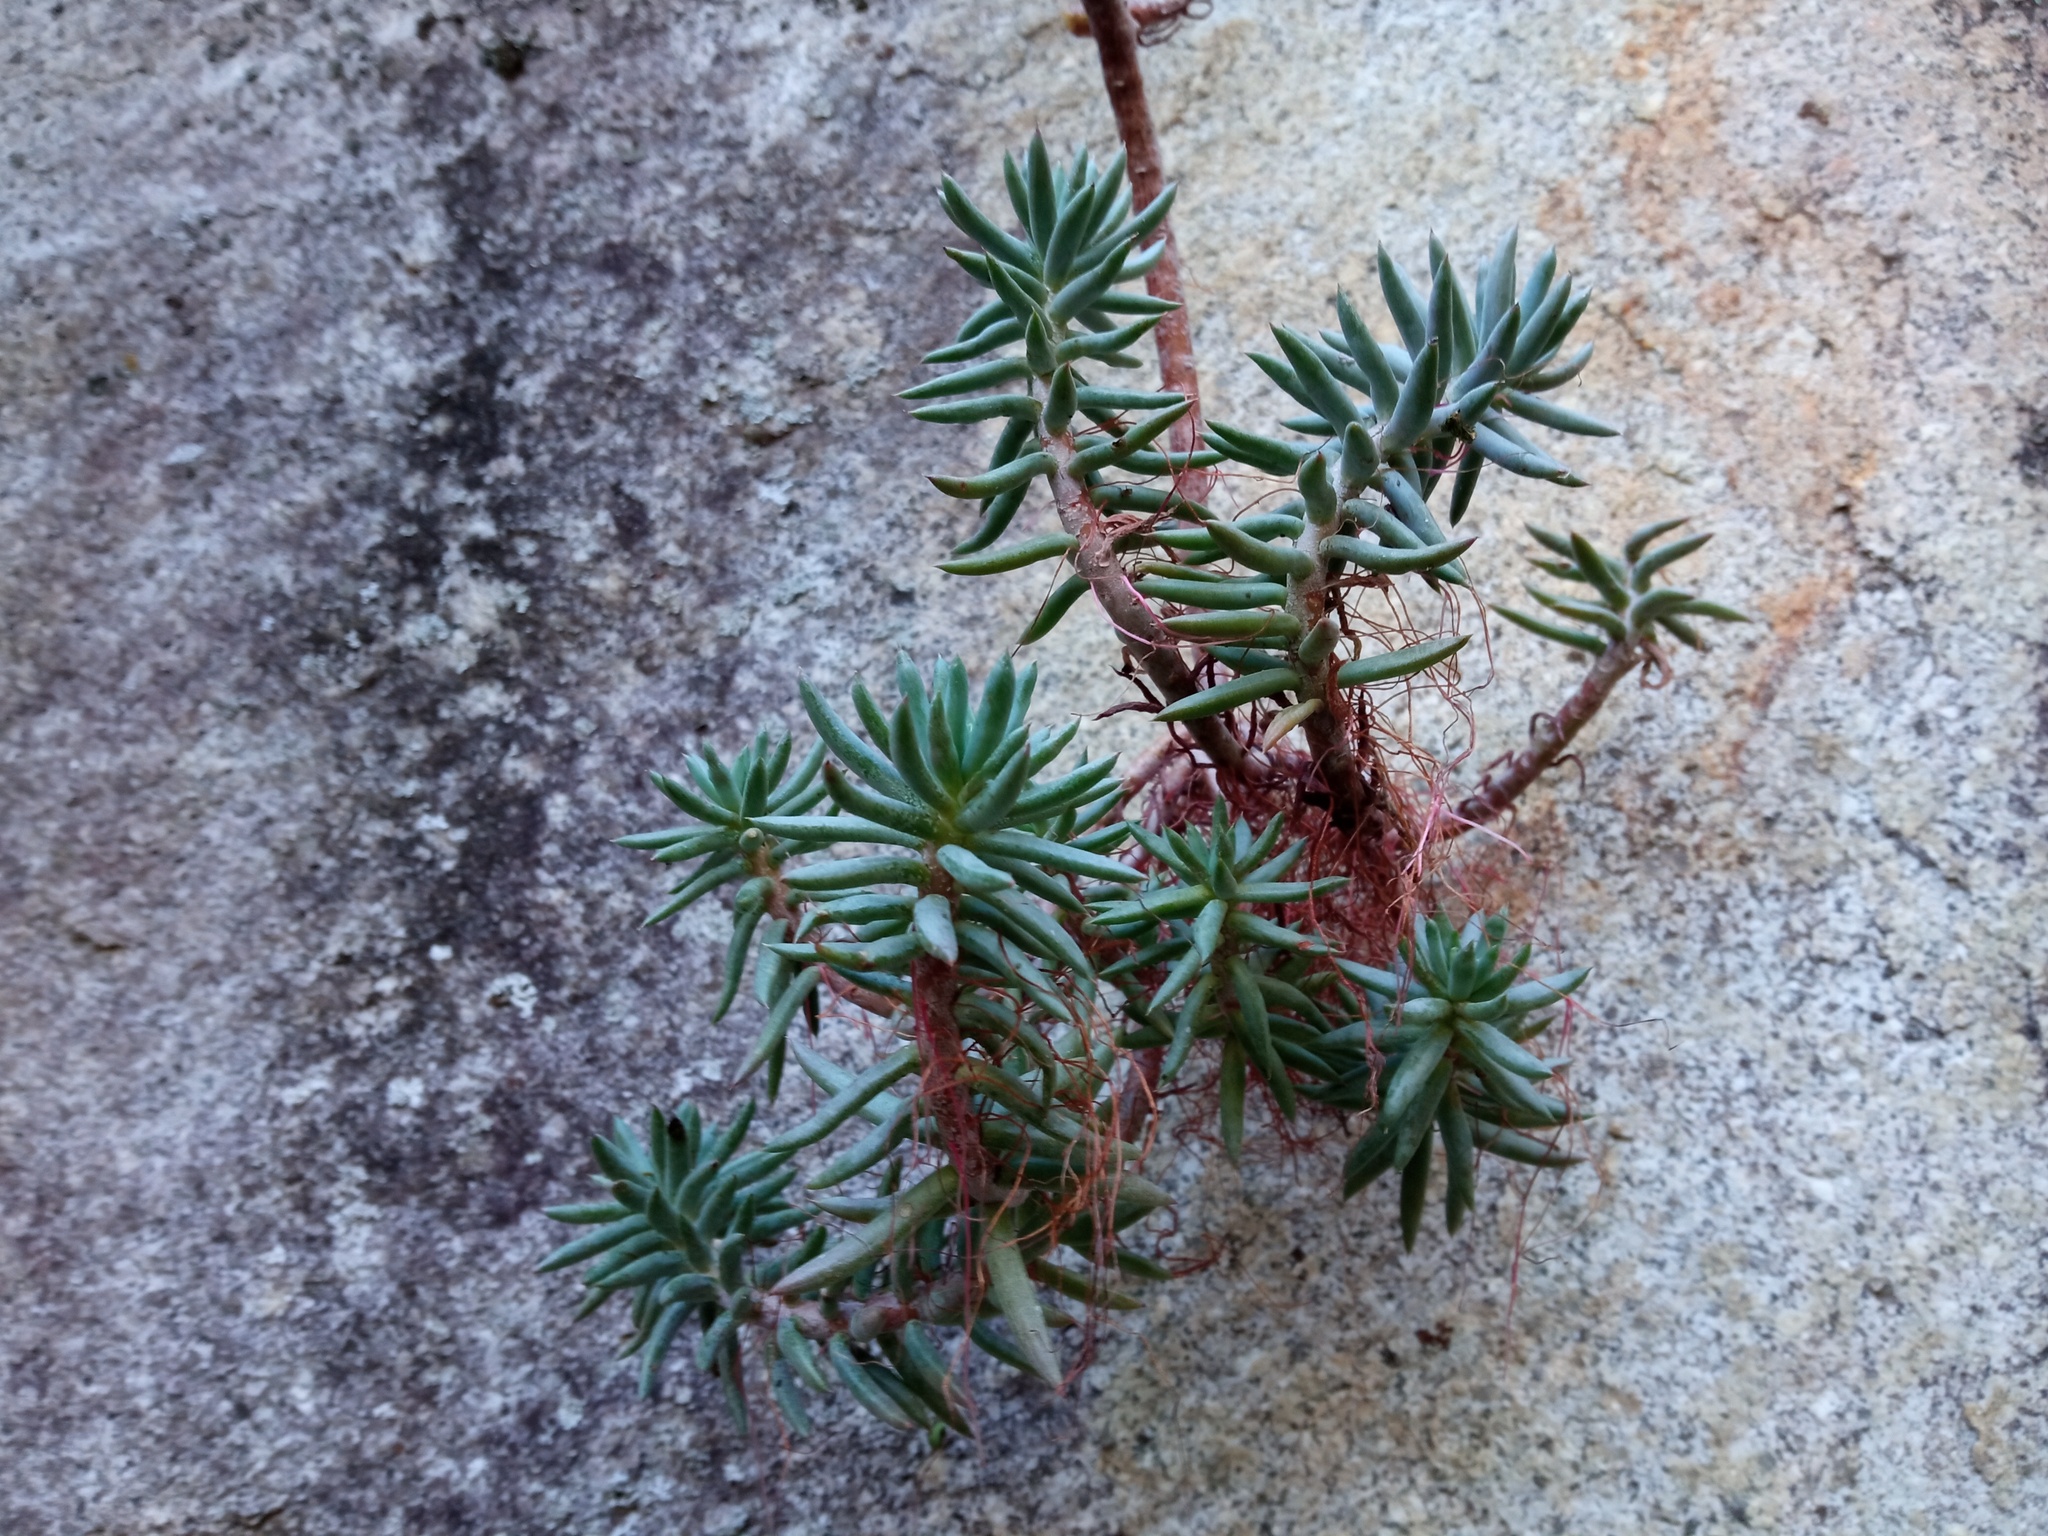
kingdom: Plantae
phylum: Tracheophyta
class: Magnoliopsida
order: Saxifragales
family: Crassulaceae
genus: Petrosedum
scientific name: Petrosedum sediforme
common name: Pale stonecrop
